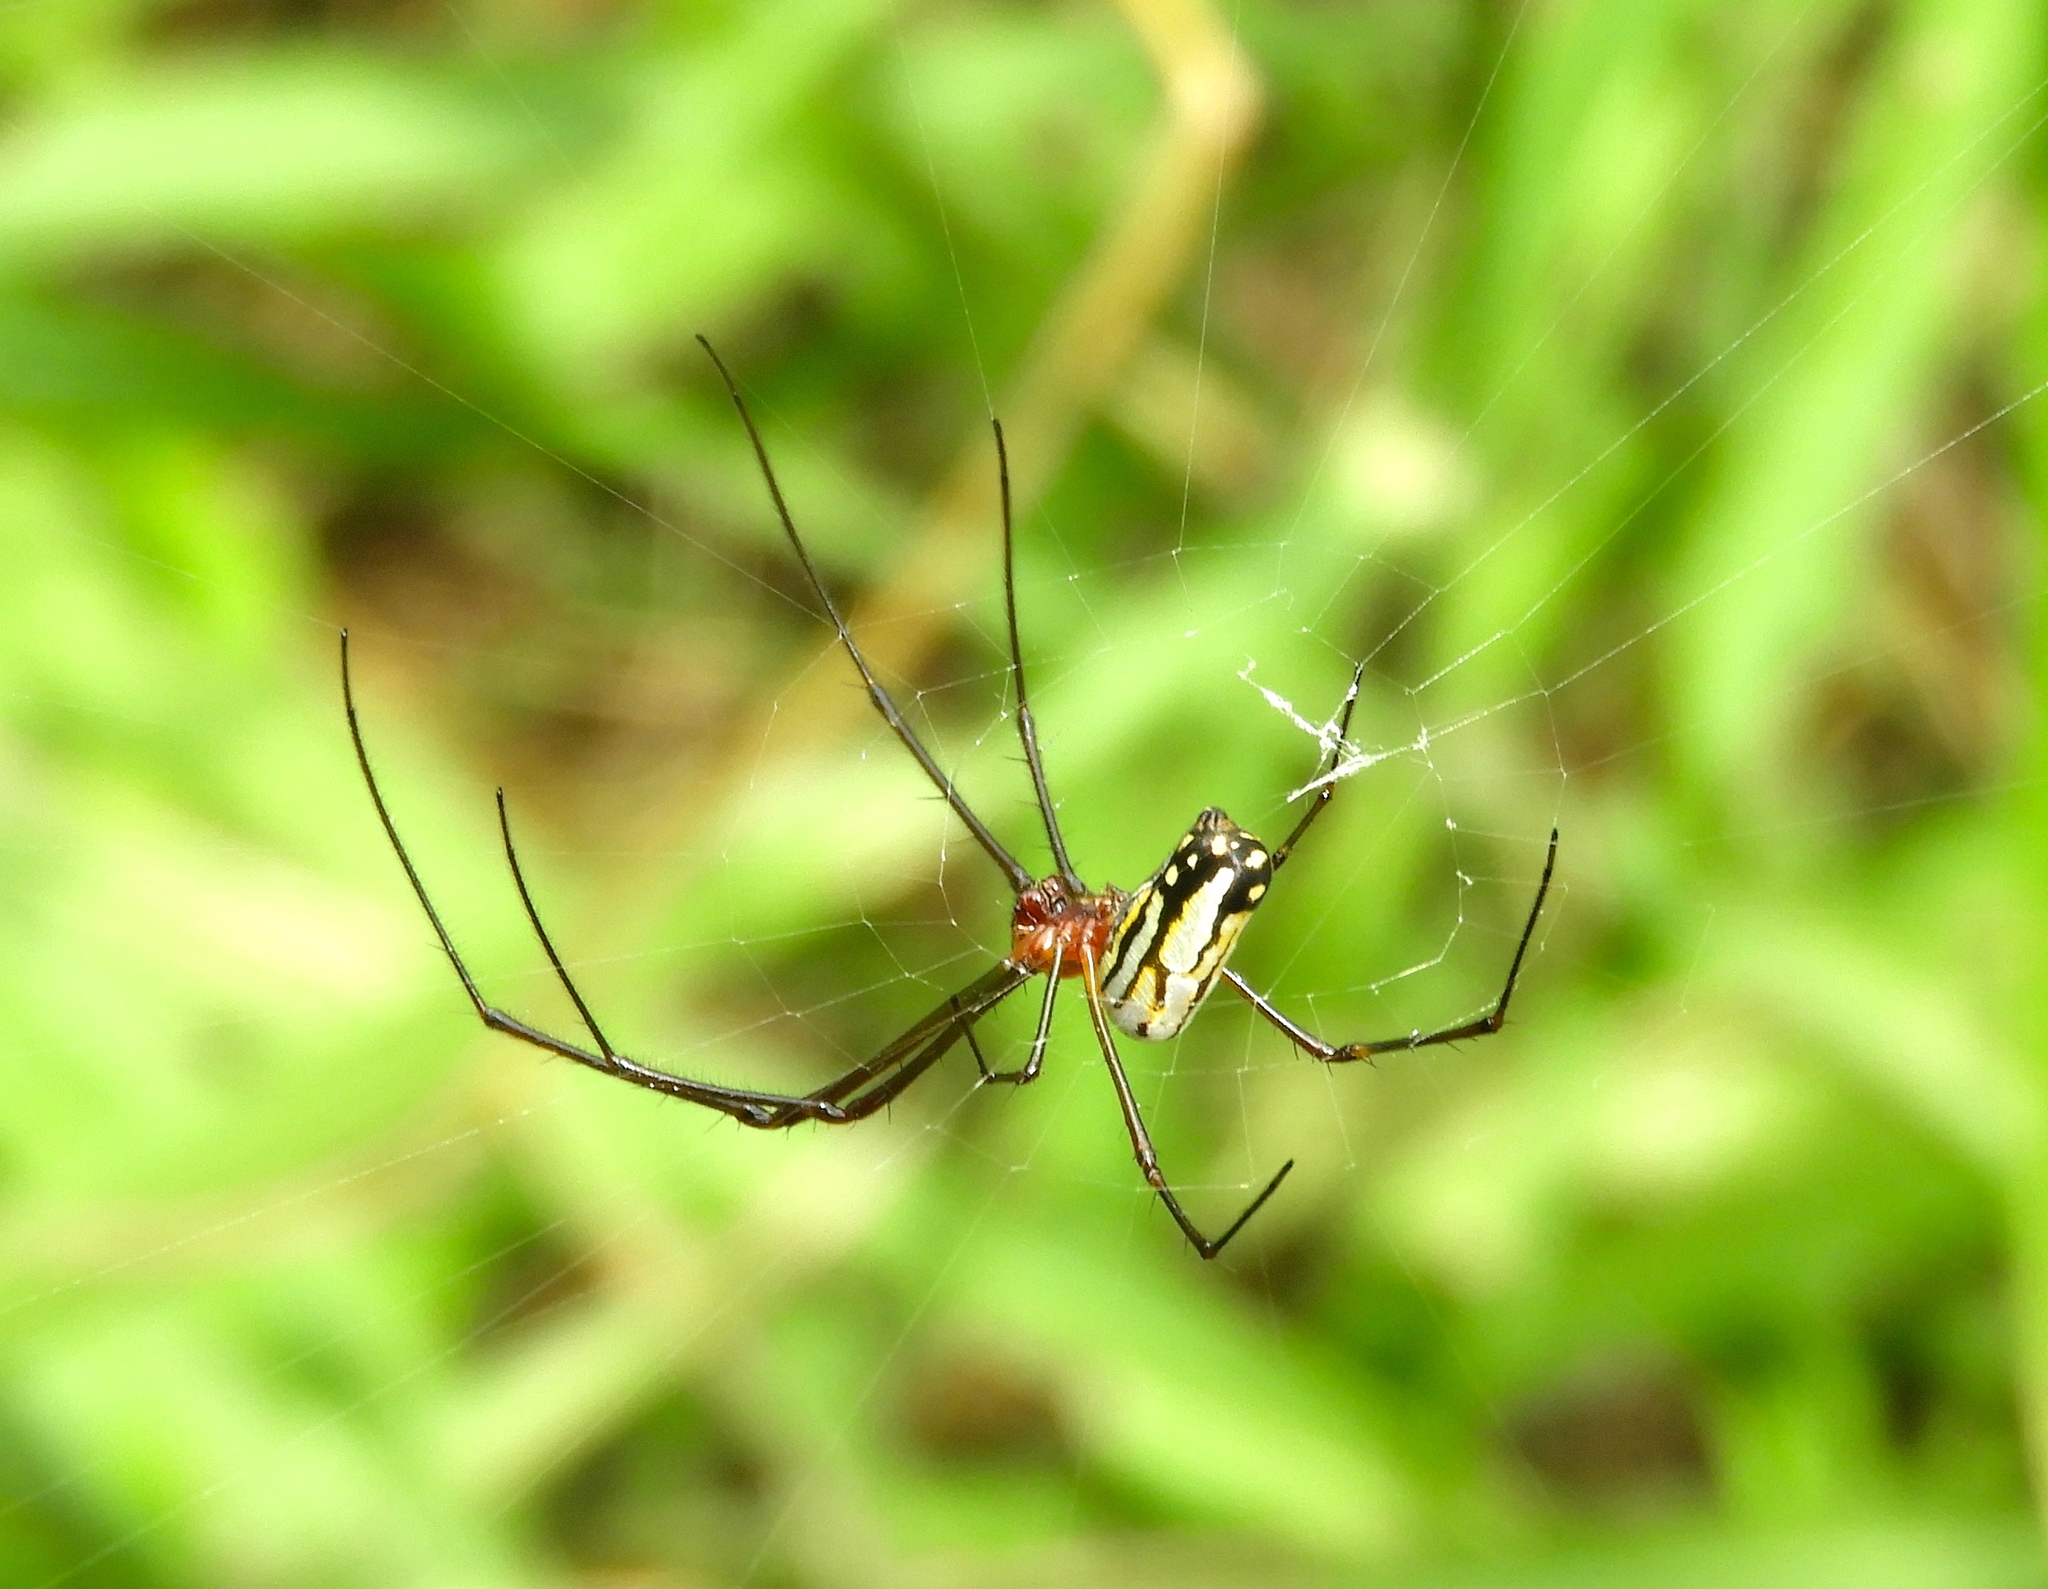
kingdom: Animalia
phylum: Arthropoda
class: Arachnida
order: Araneae
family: Tetragnathidae
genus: Leucauge
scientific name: Leucauge argyra
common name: Longjawed orb weavers
